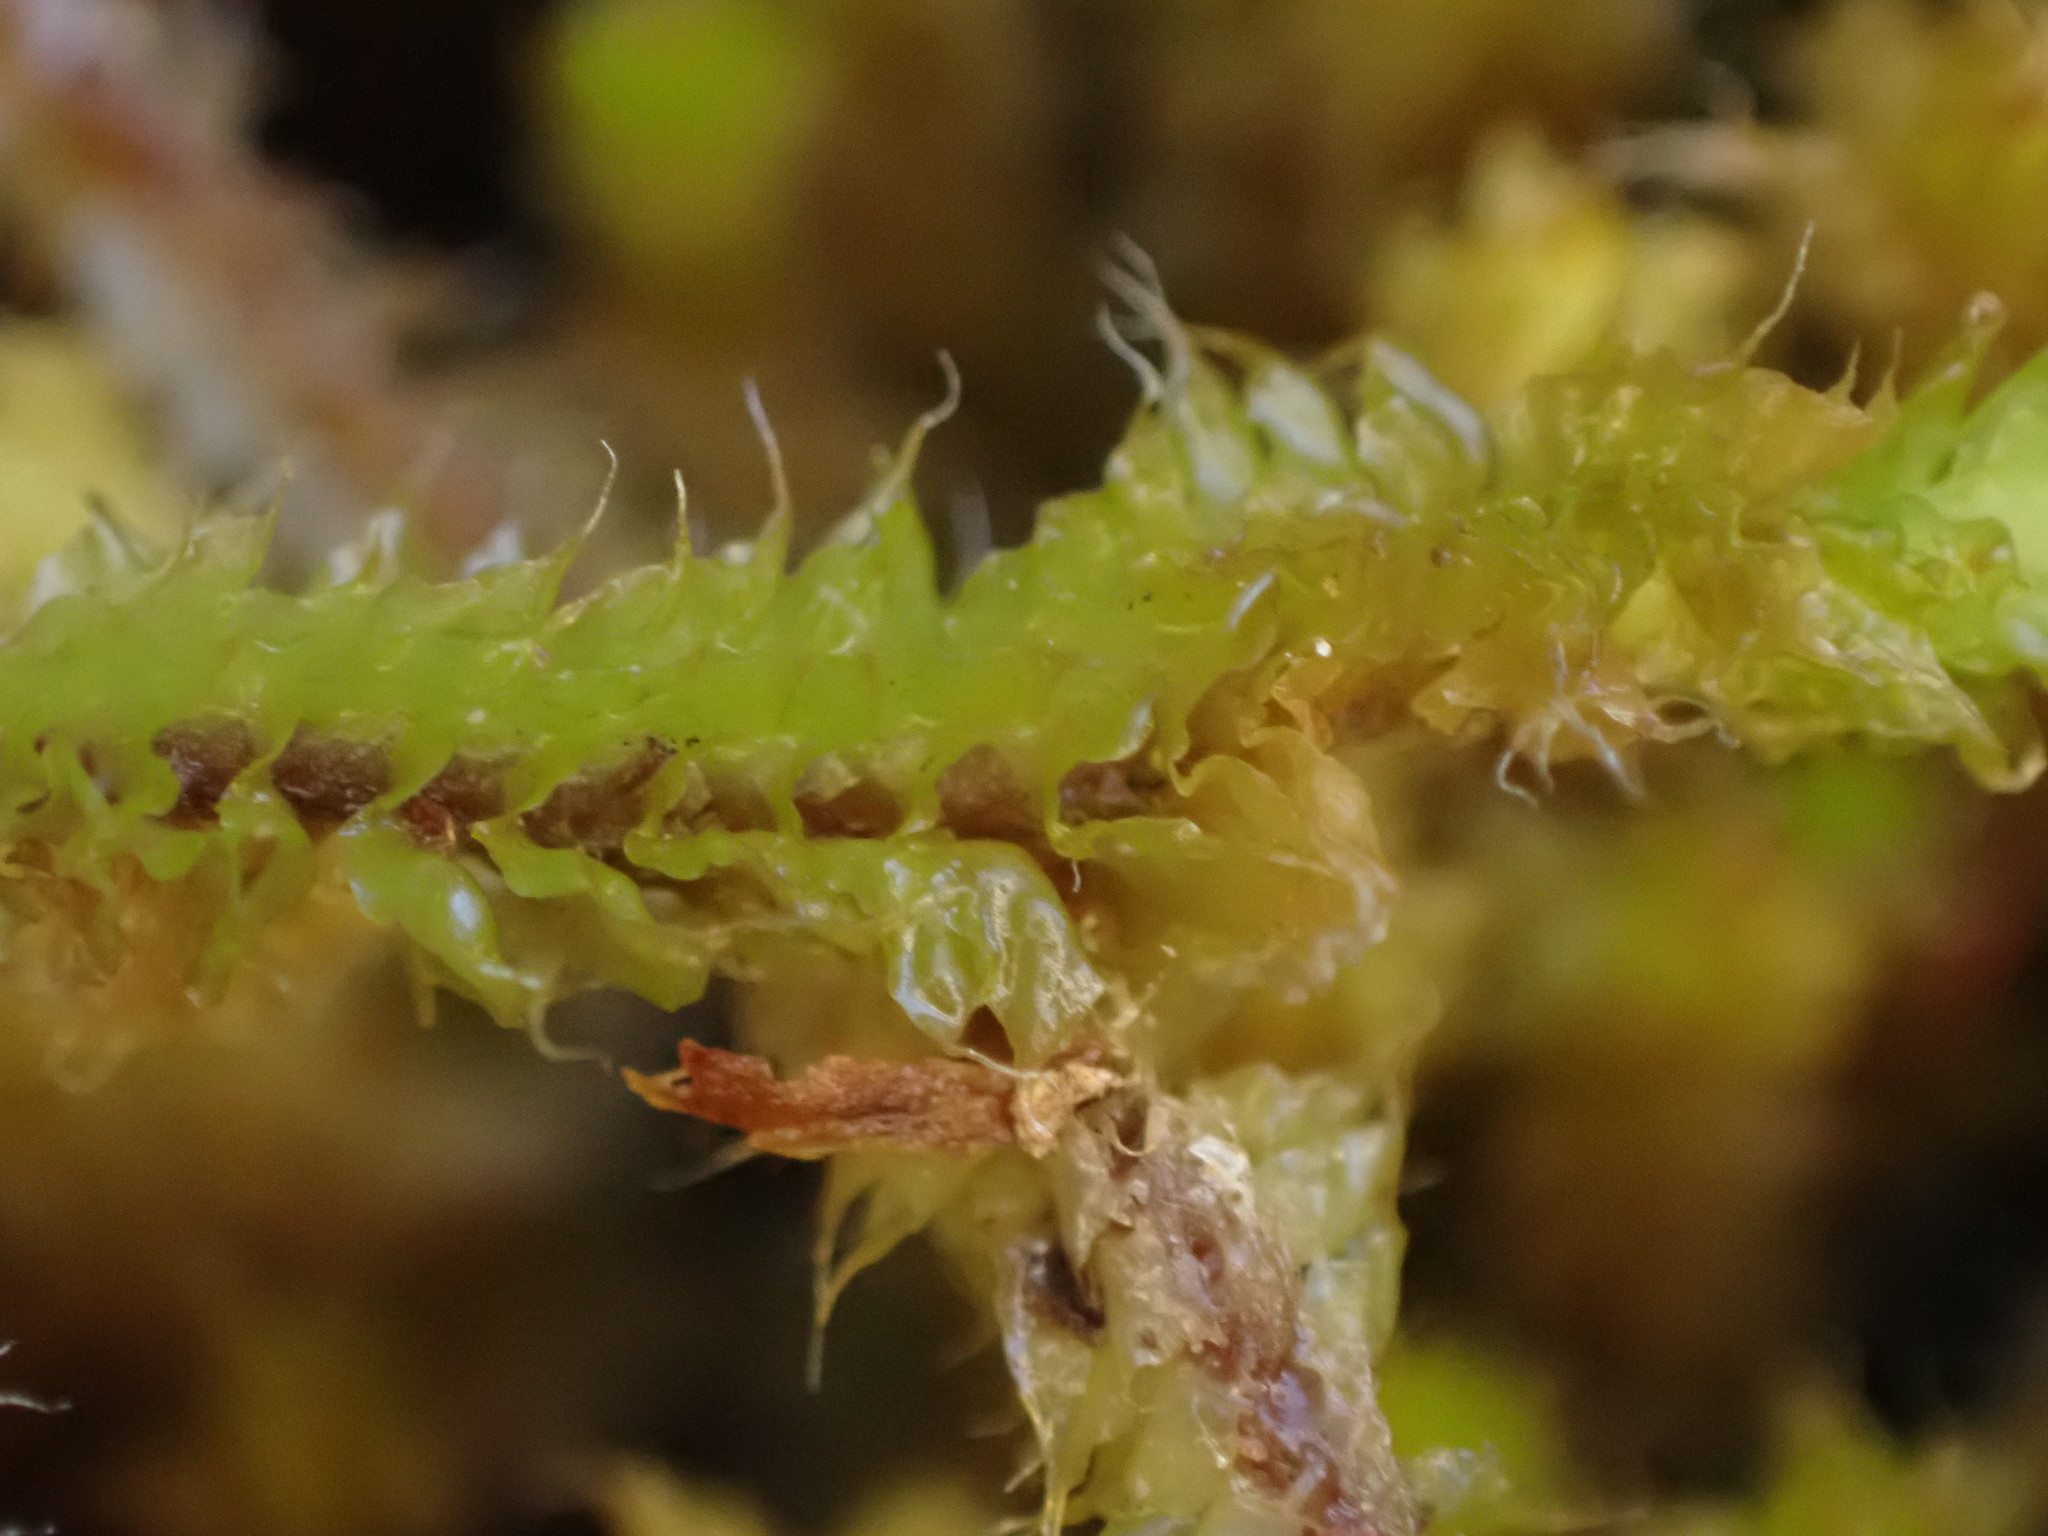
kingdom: Plantae
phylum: Marchantiophyta
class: Jungermanniopsida
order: Jungermanniales
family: Anastrophyllaceae
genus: Chandonanthus
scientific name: Chandonanthus squarrosus
